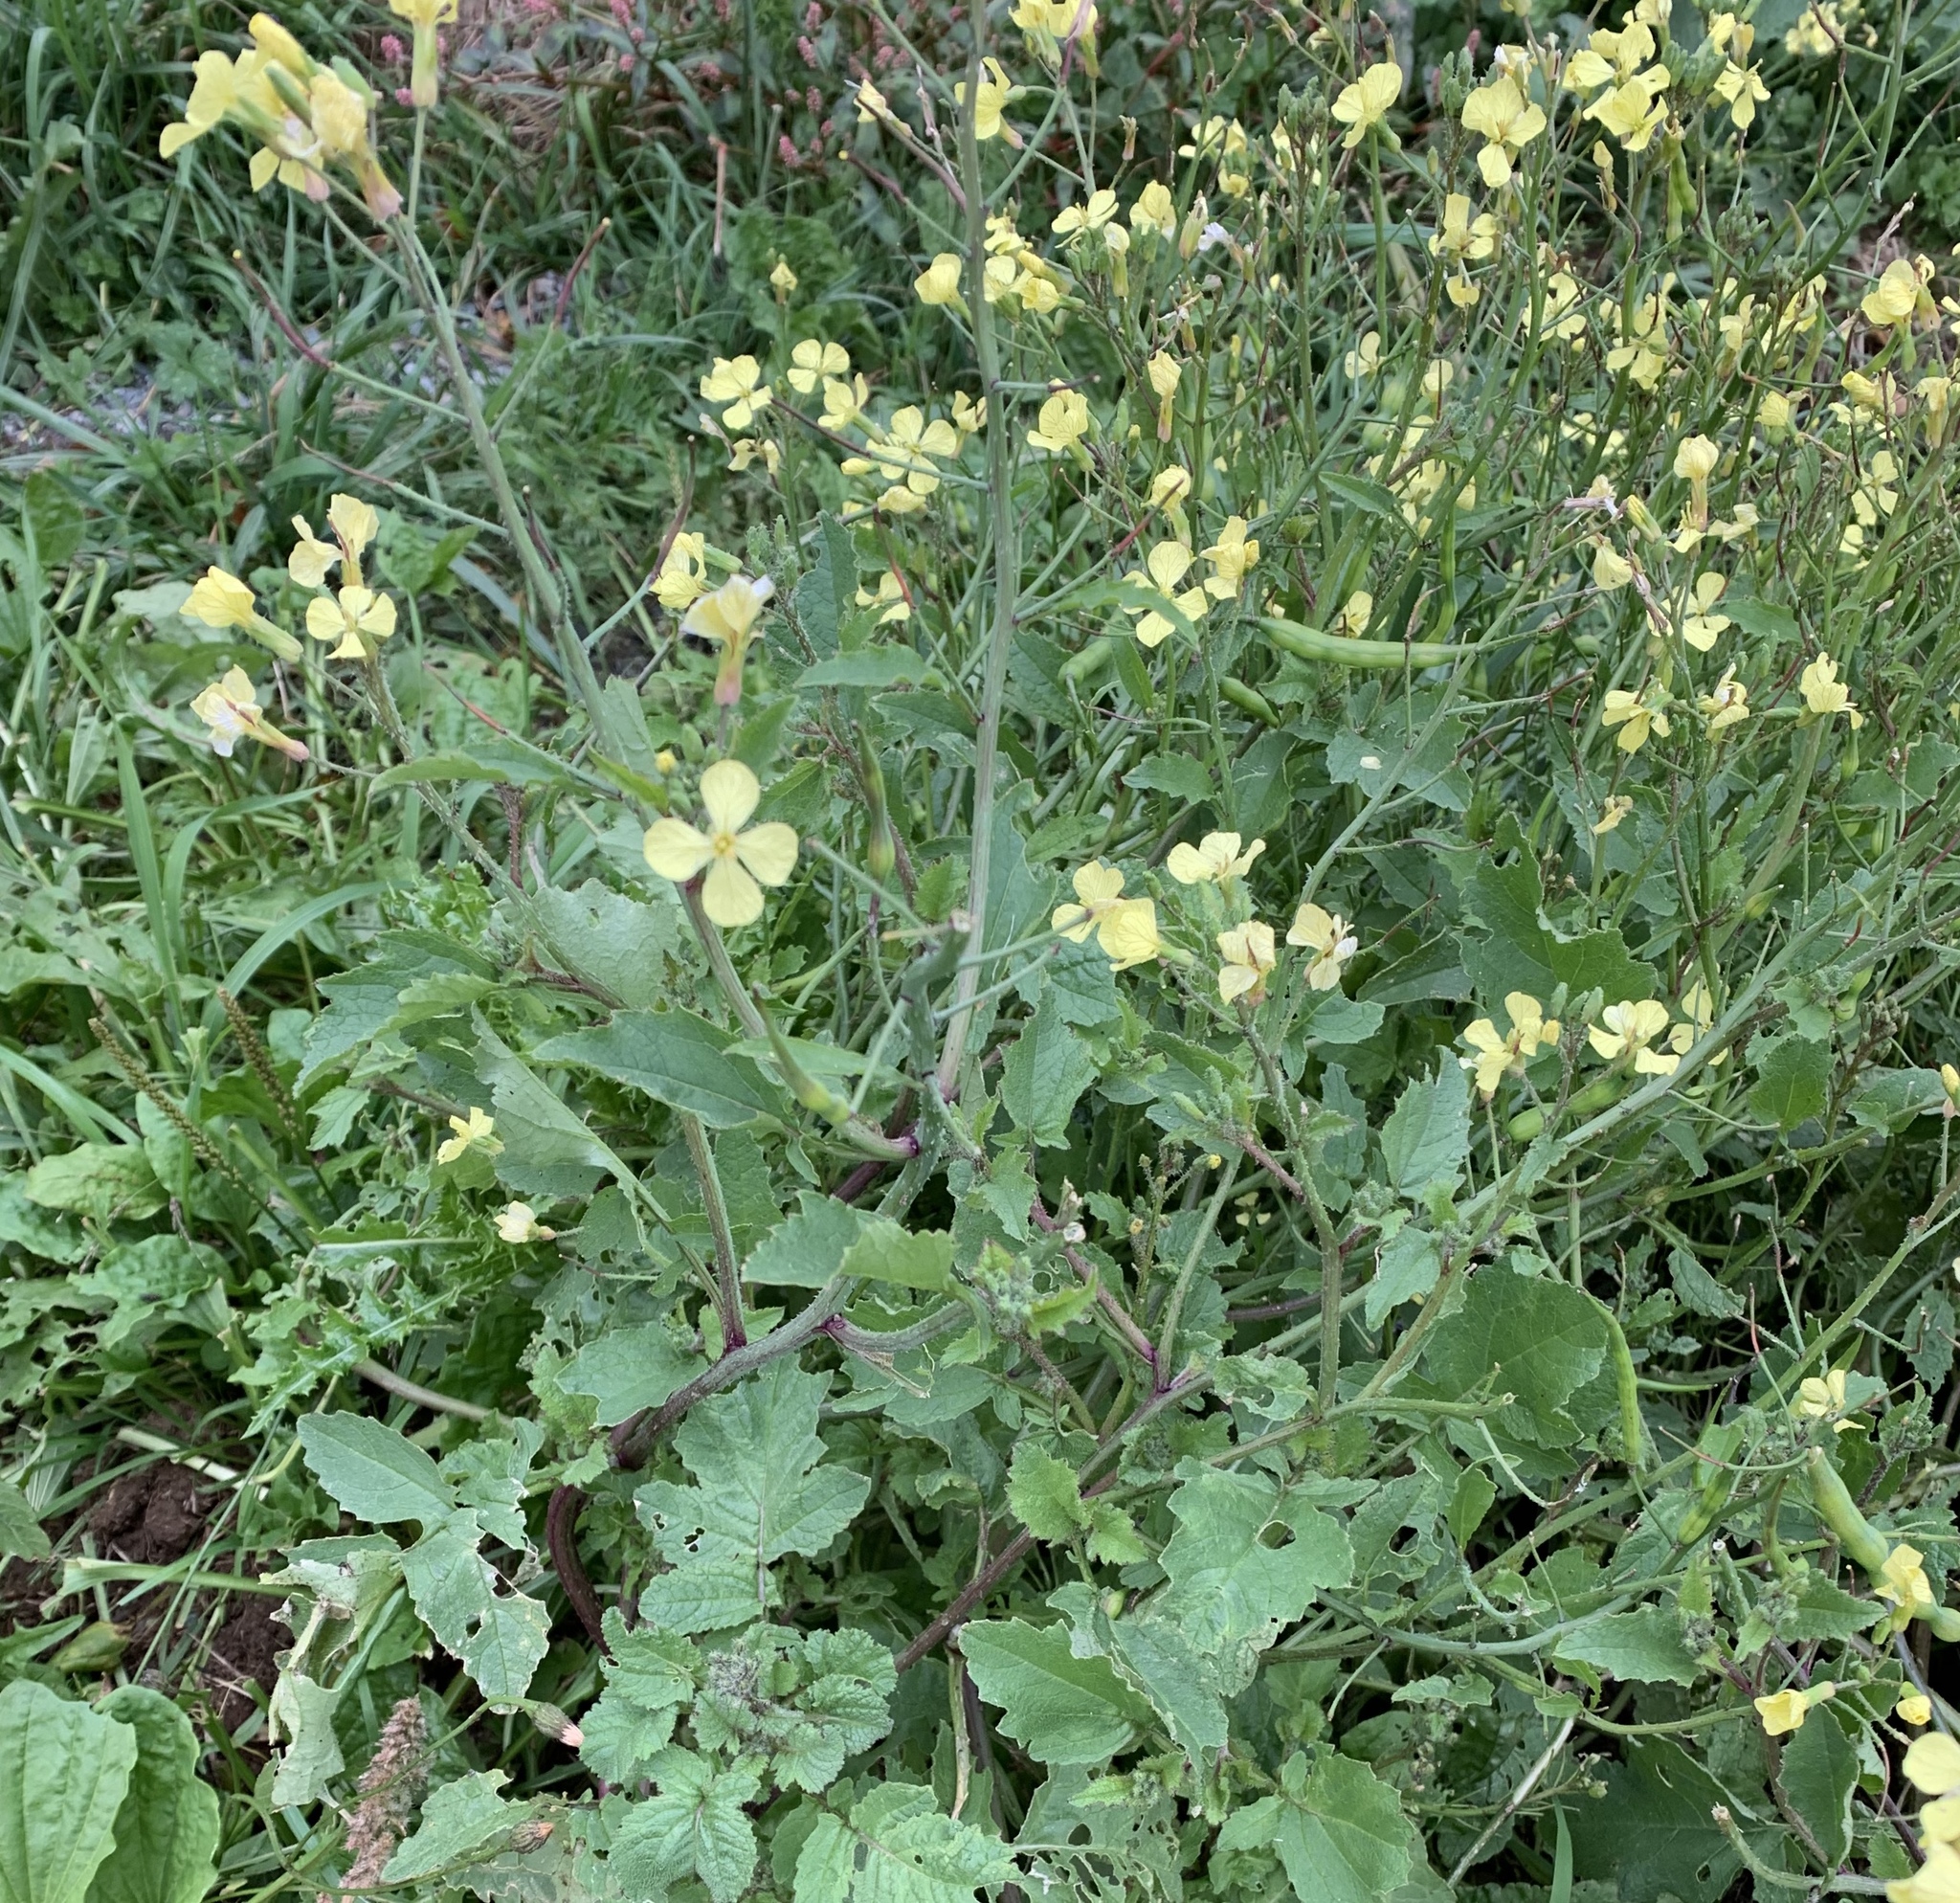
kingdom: Plantae
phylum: Tracheophyta
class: Magnoliopsida
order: Brassicales
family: Brassicaceae
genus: Raphanus
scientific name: Raphanus raphanistrum
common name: Wild radish
